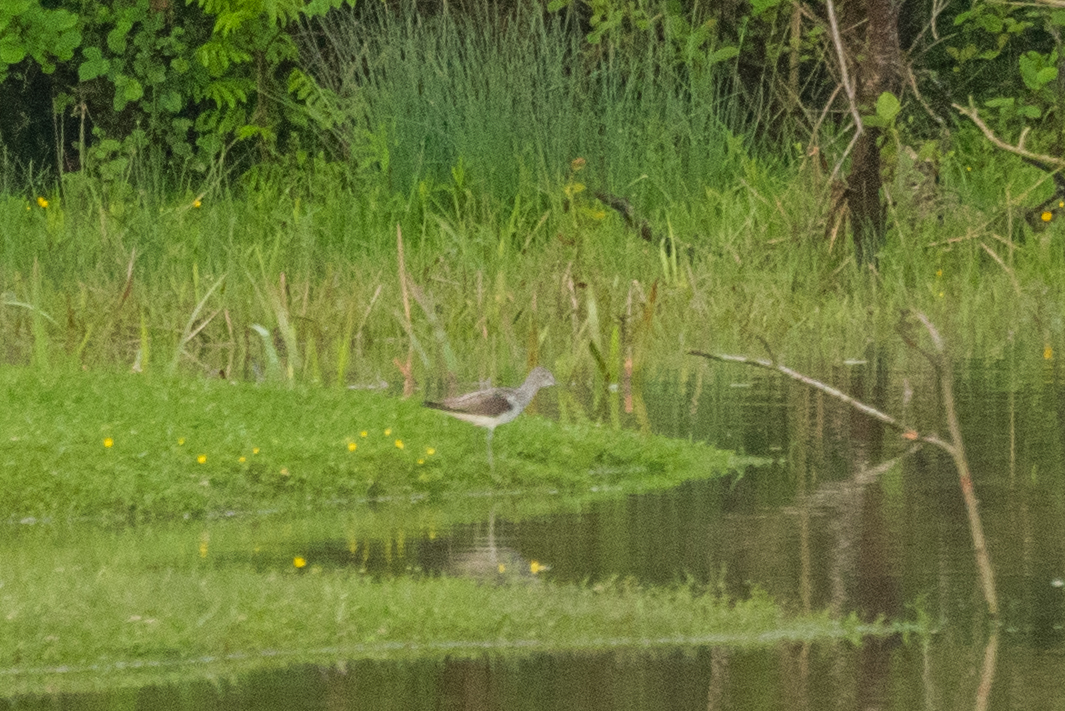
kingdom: Animalia
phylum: Chordata
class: Aves
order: Charadriiformes
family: Scolopacidae
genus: Tringa
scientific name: Tringa nebularia
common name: Common greenshank
